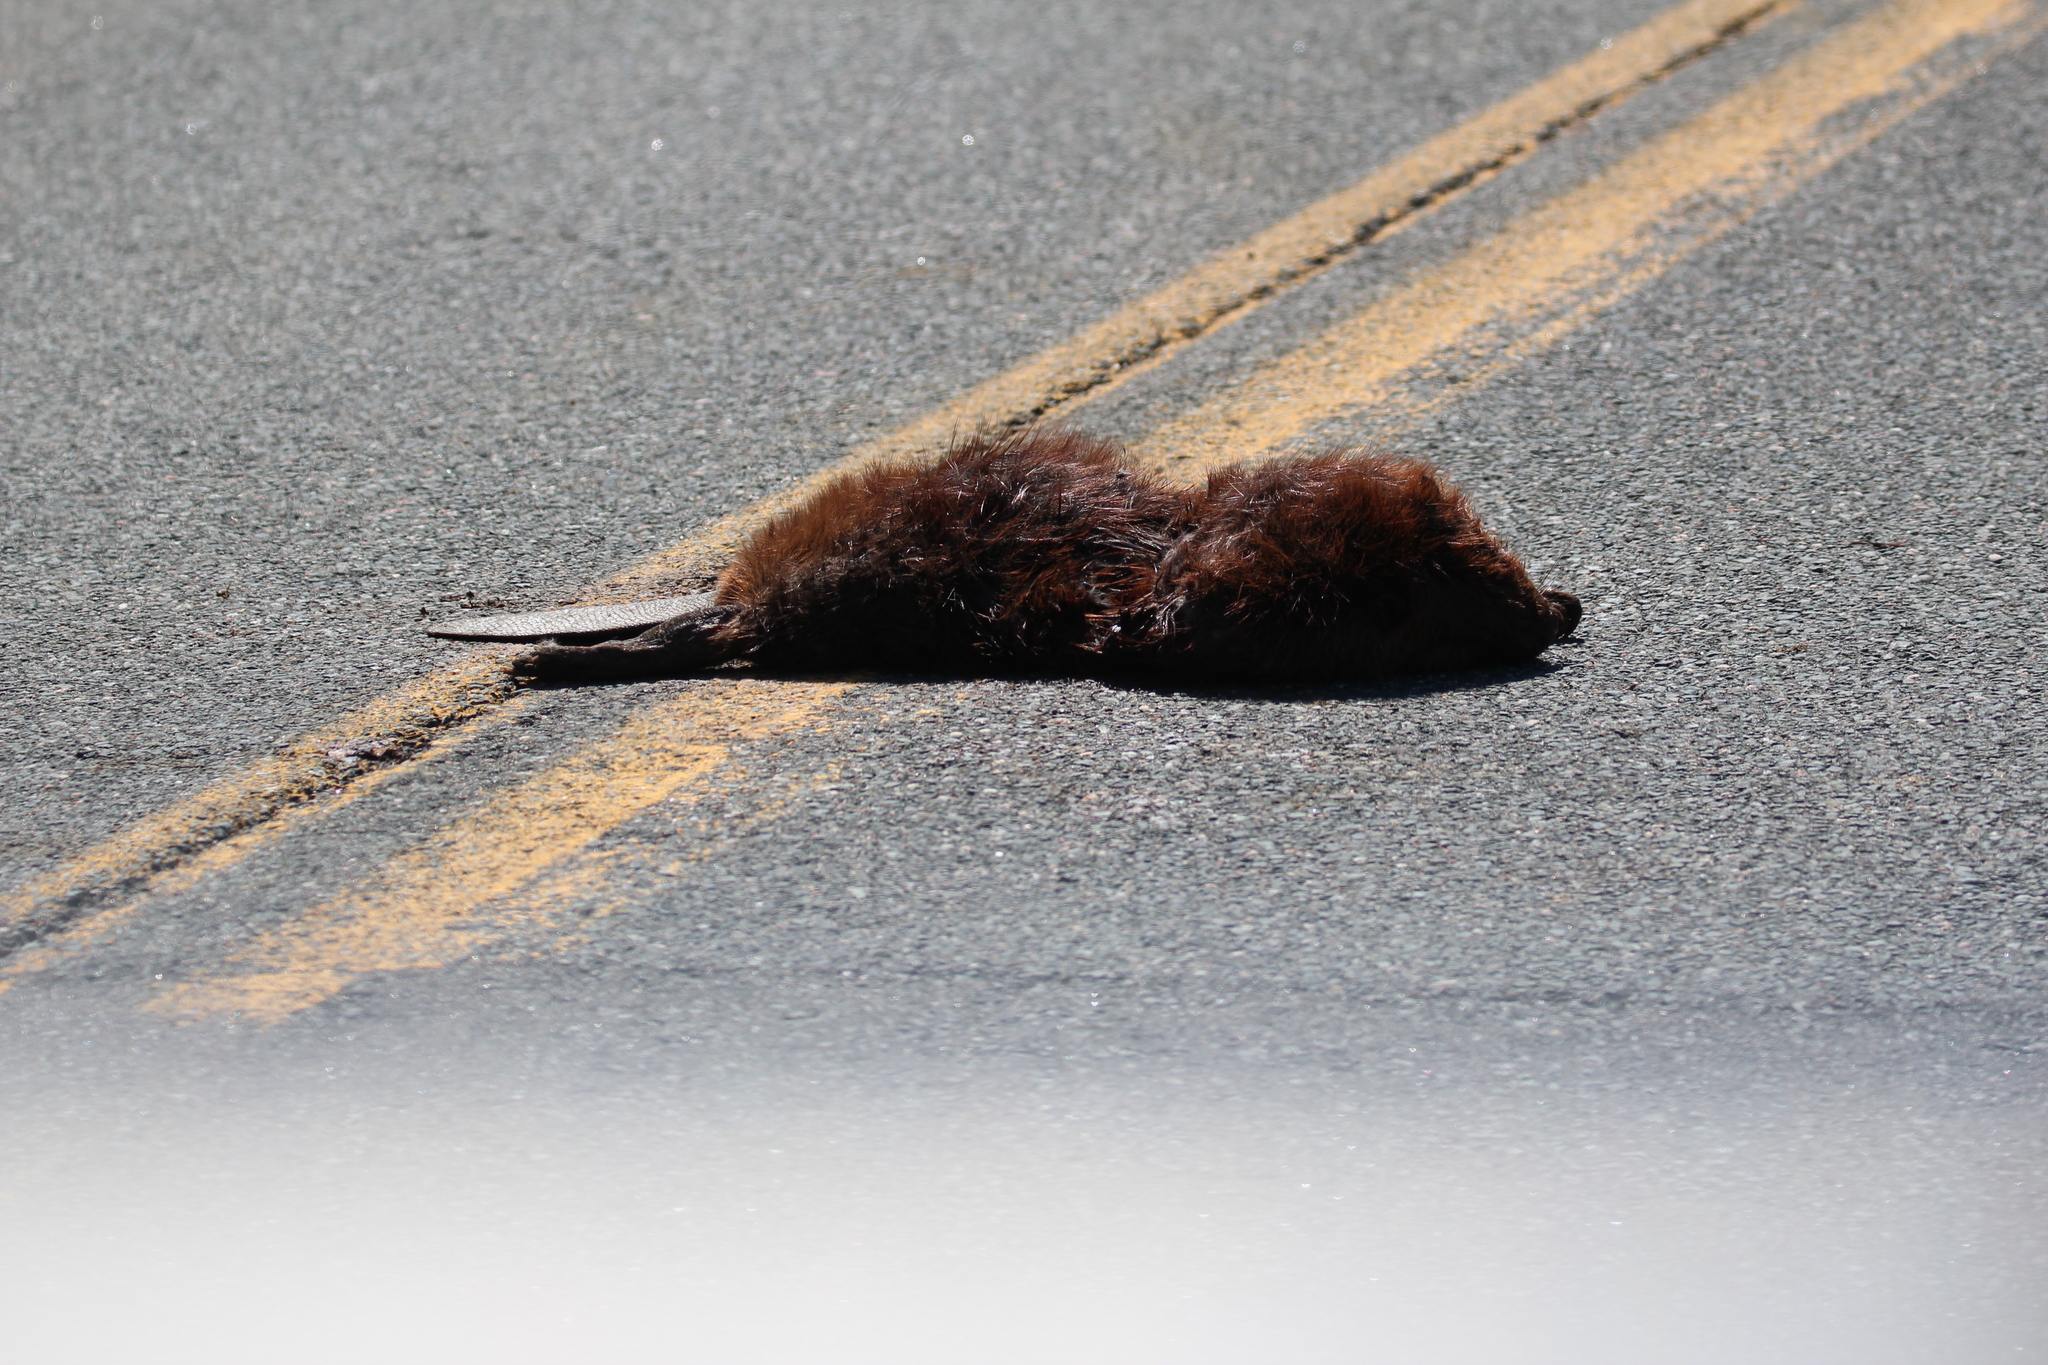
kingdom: Animalia
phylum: Chordata
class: Mammalia
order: Rodentia
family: Castoridae
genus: Castor
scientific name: Castor canadensis
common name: American beaver
